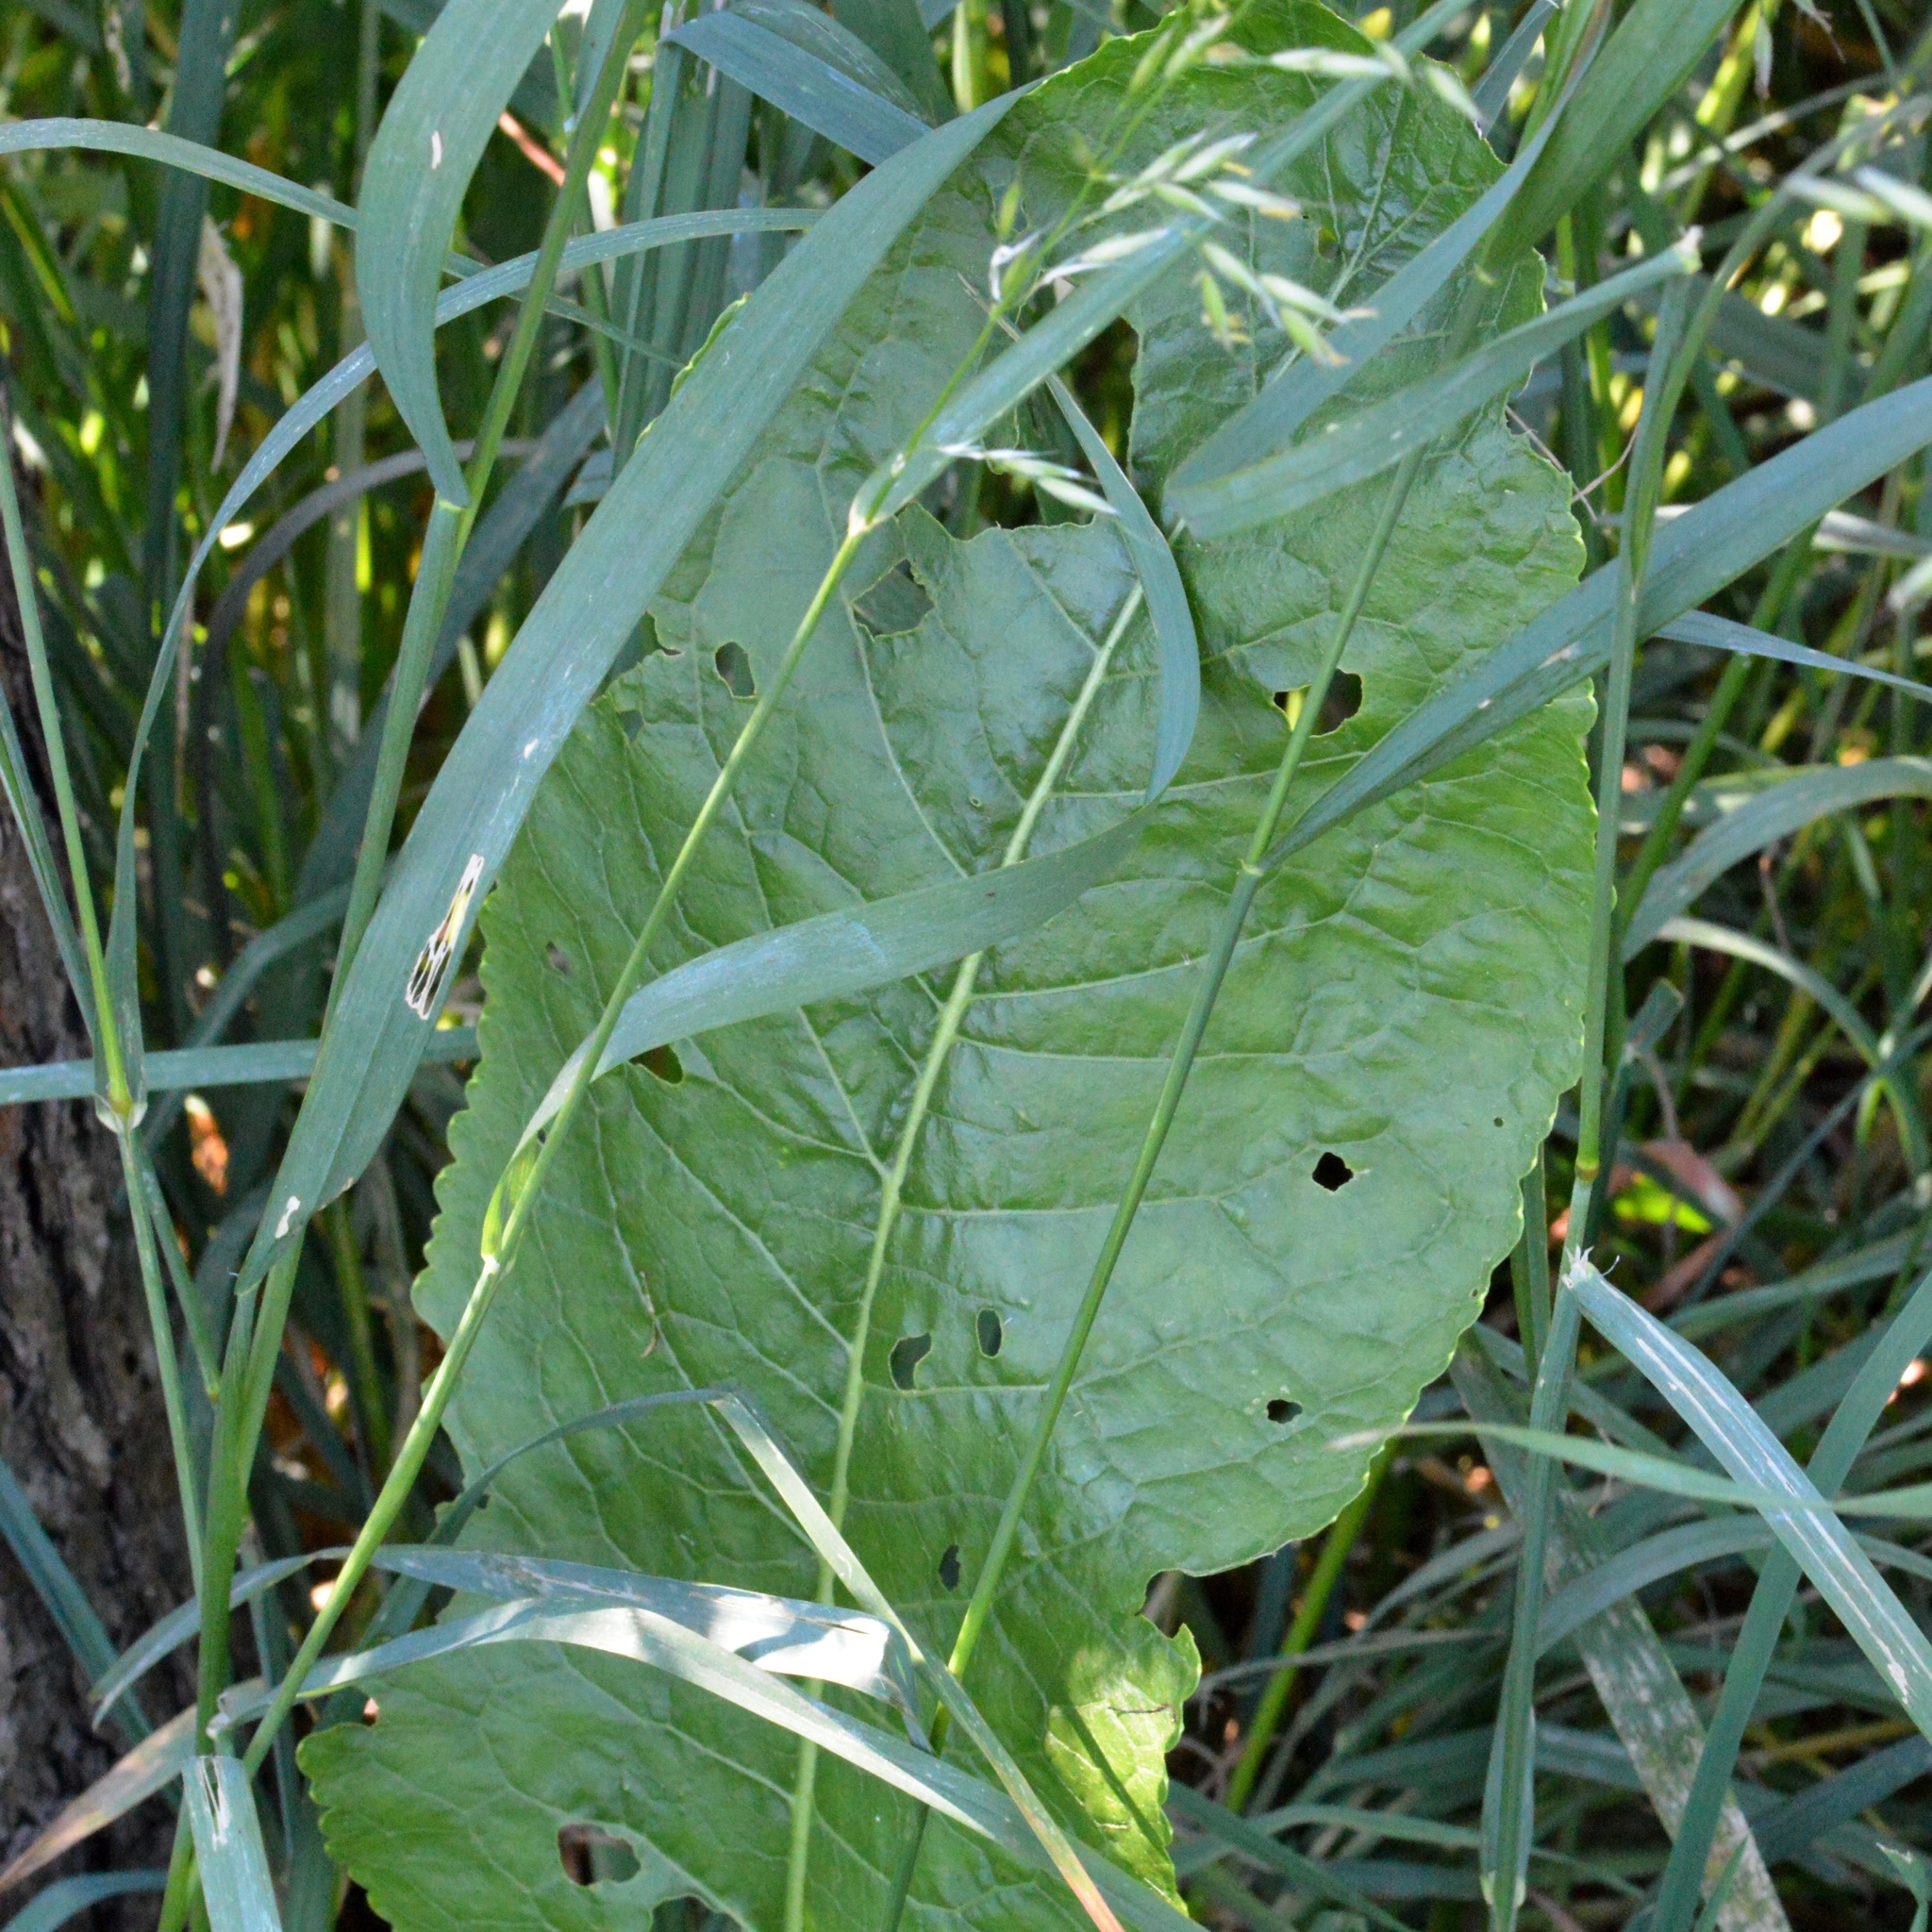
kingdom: Plantae
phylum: Tracheophyta
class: Magnoliopsida
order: Brassicales
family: Brassicaceae
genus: Armoracia
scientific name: Armoracia rusticana
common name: Horseradish
